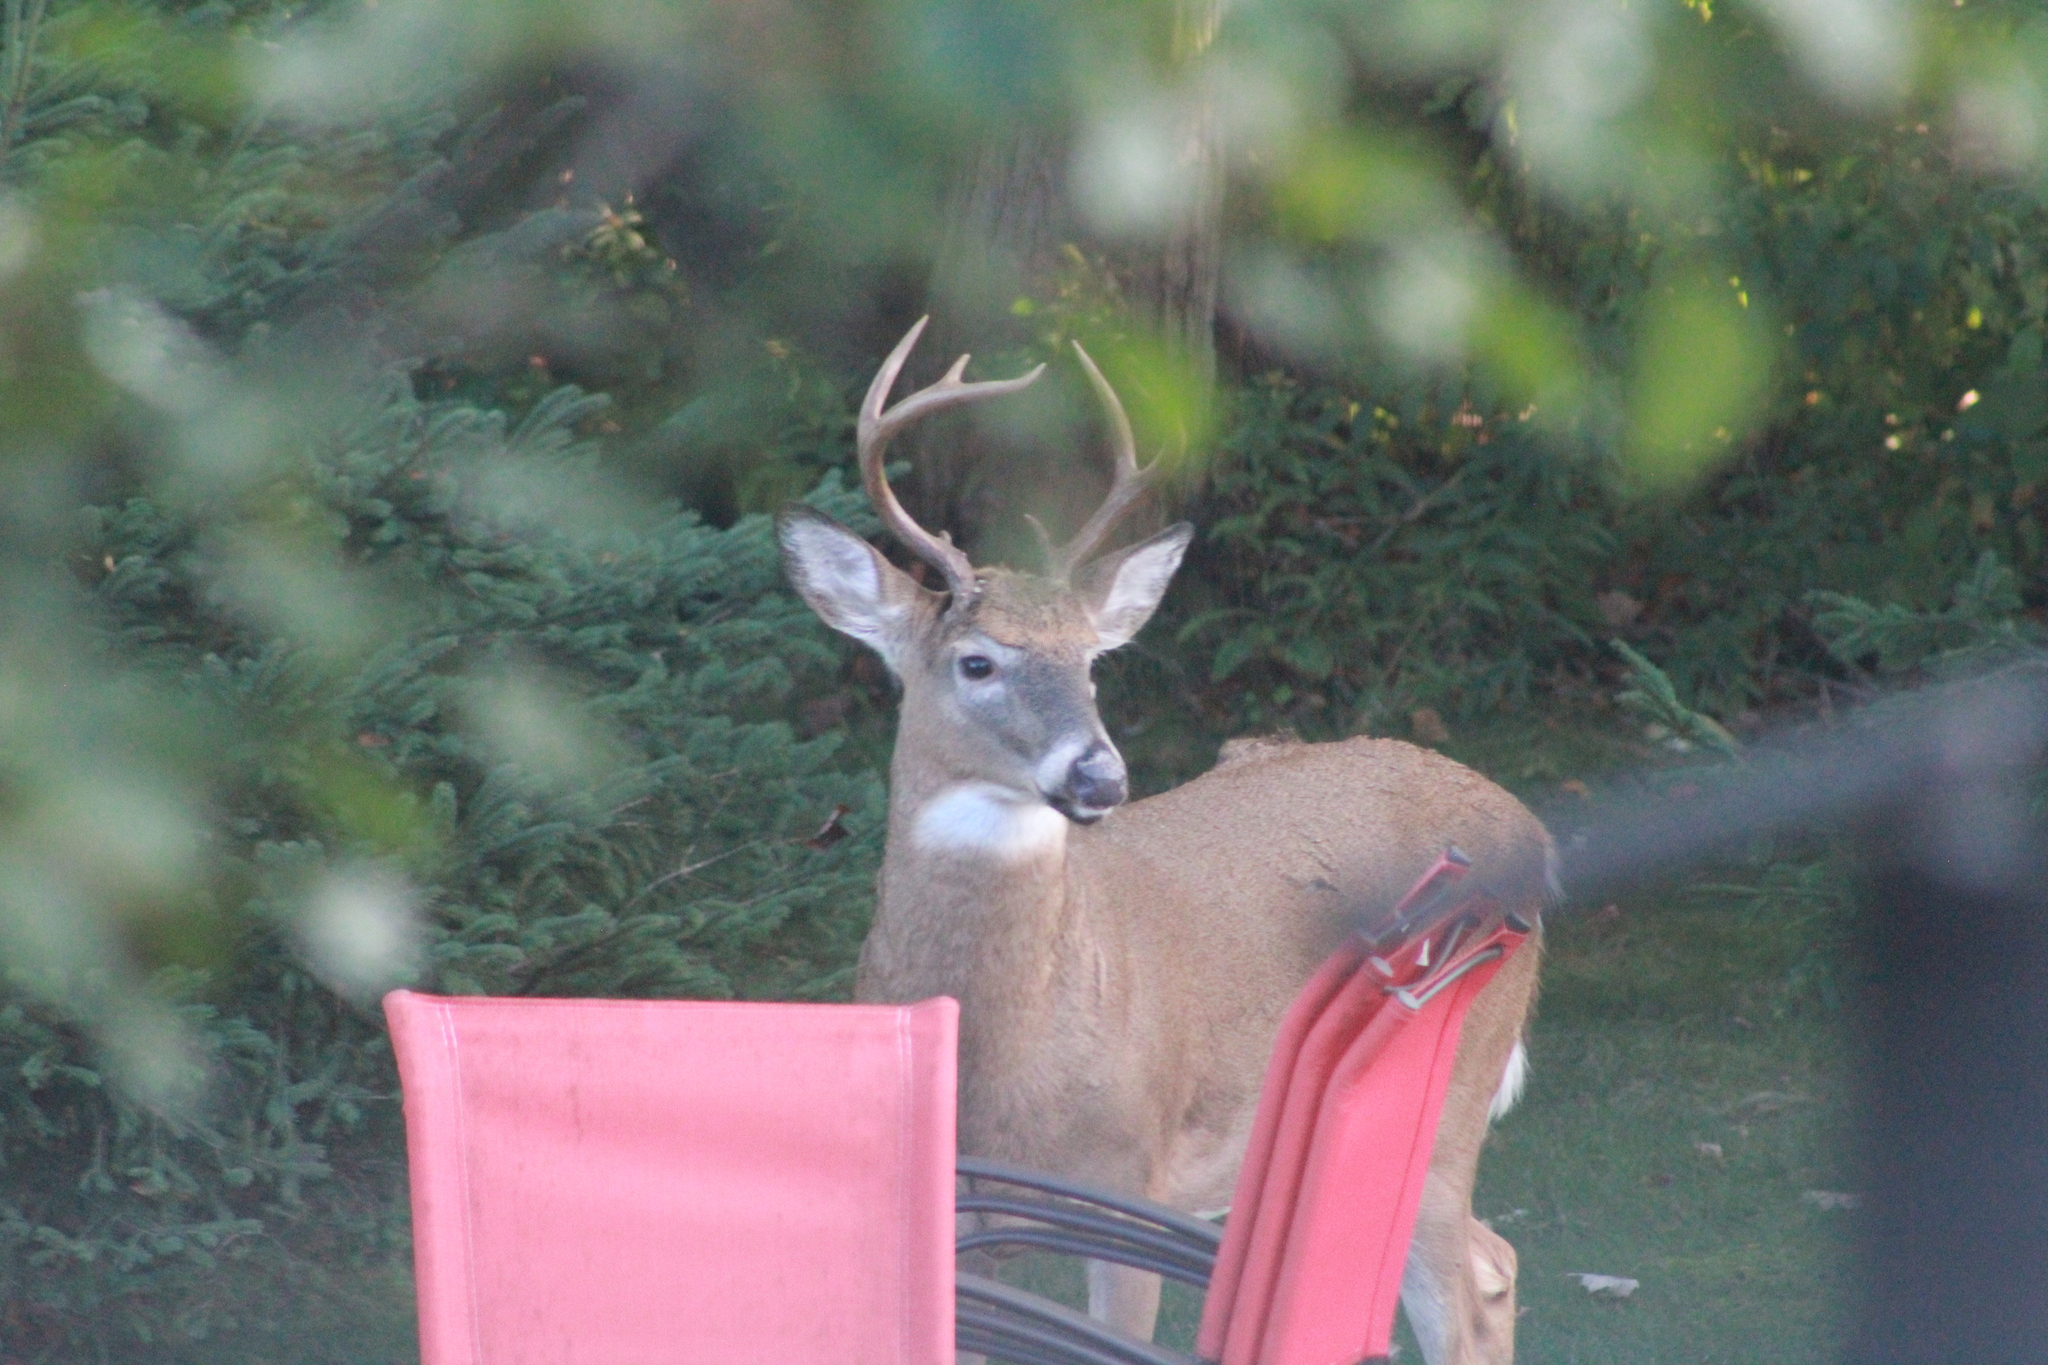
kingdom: Animalia
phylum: Chordata
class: Mammalia
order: Artiodactyla
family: Cervidae
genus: Odocoileus
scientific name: Odocoileus virginianus
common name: White-tailed deer
